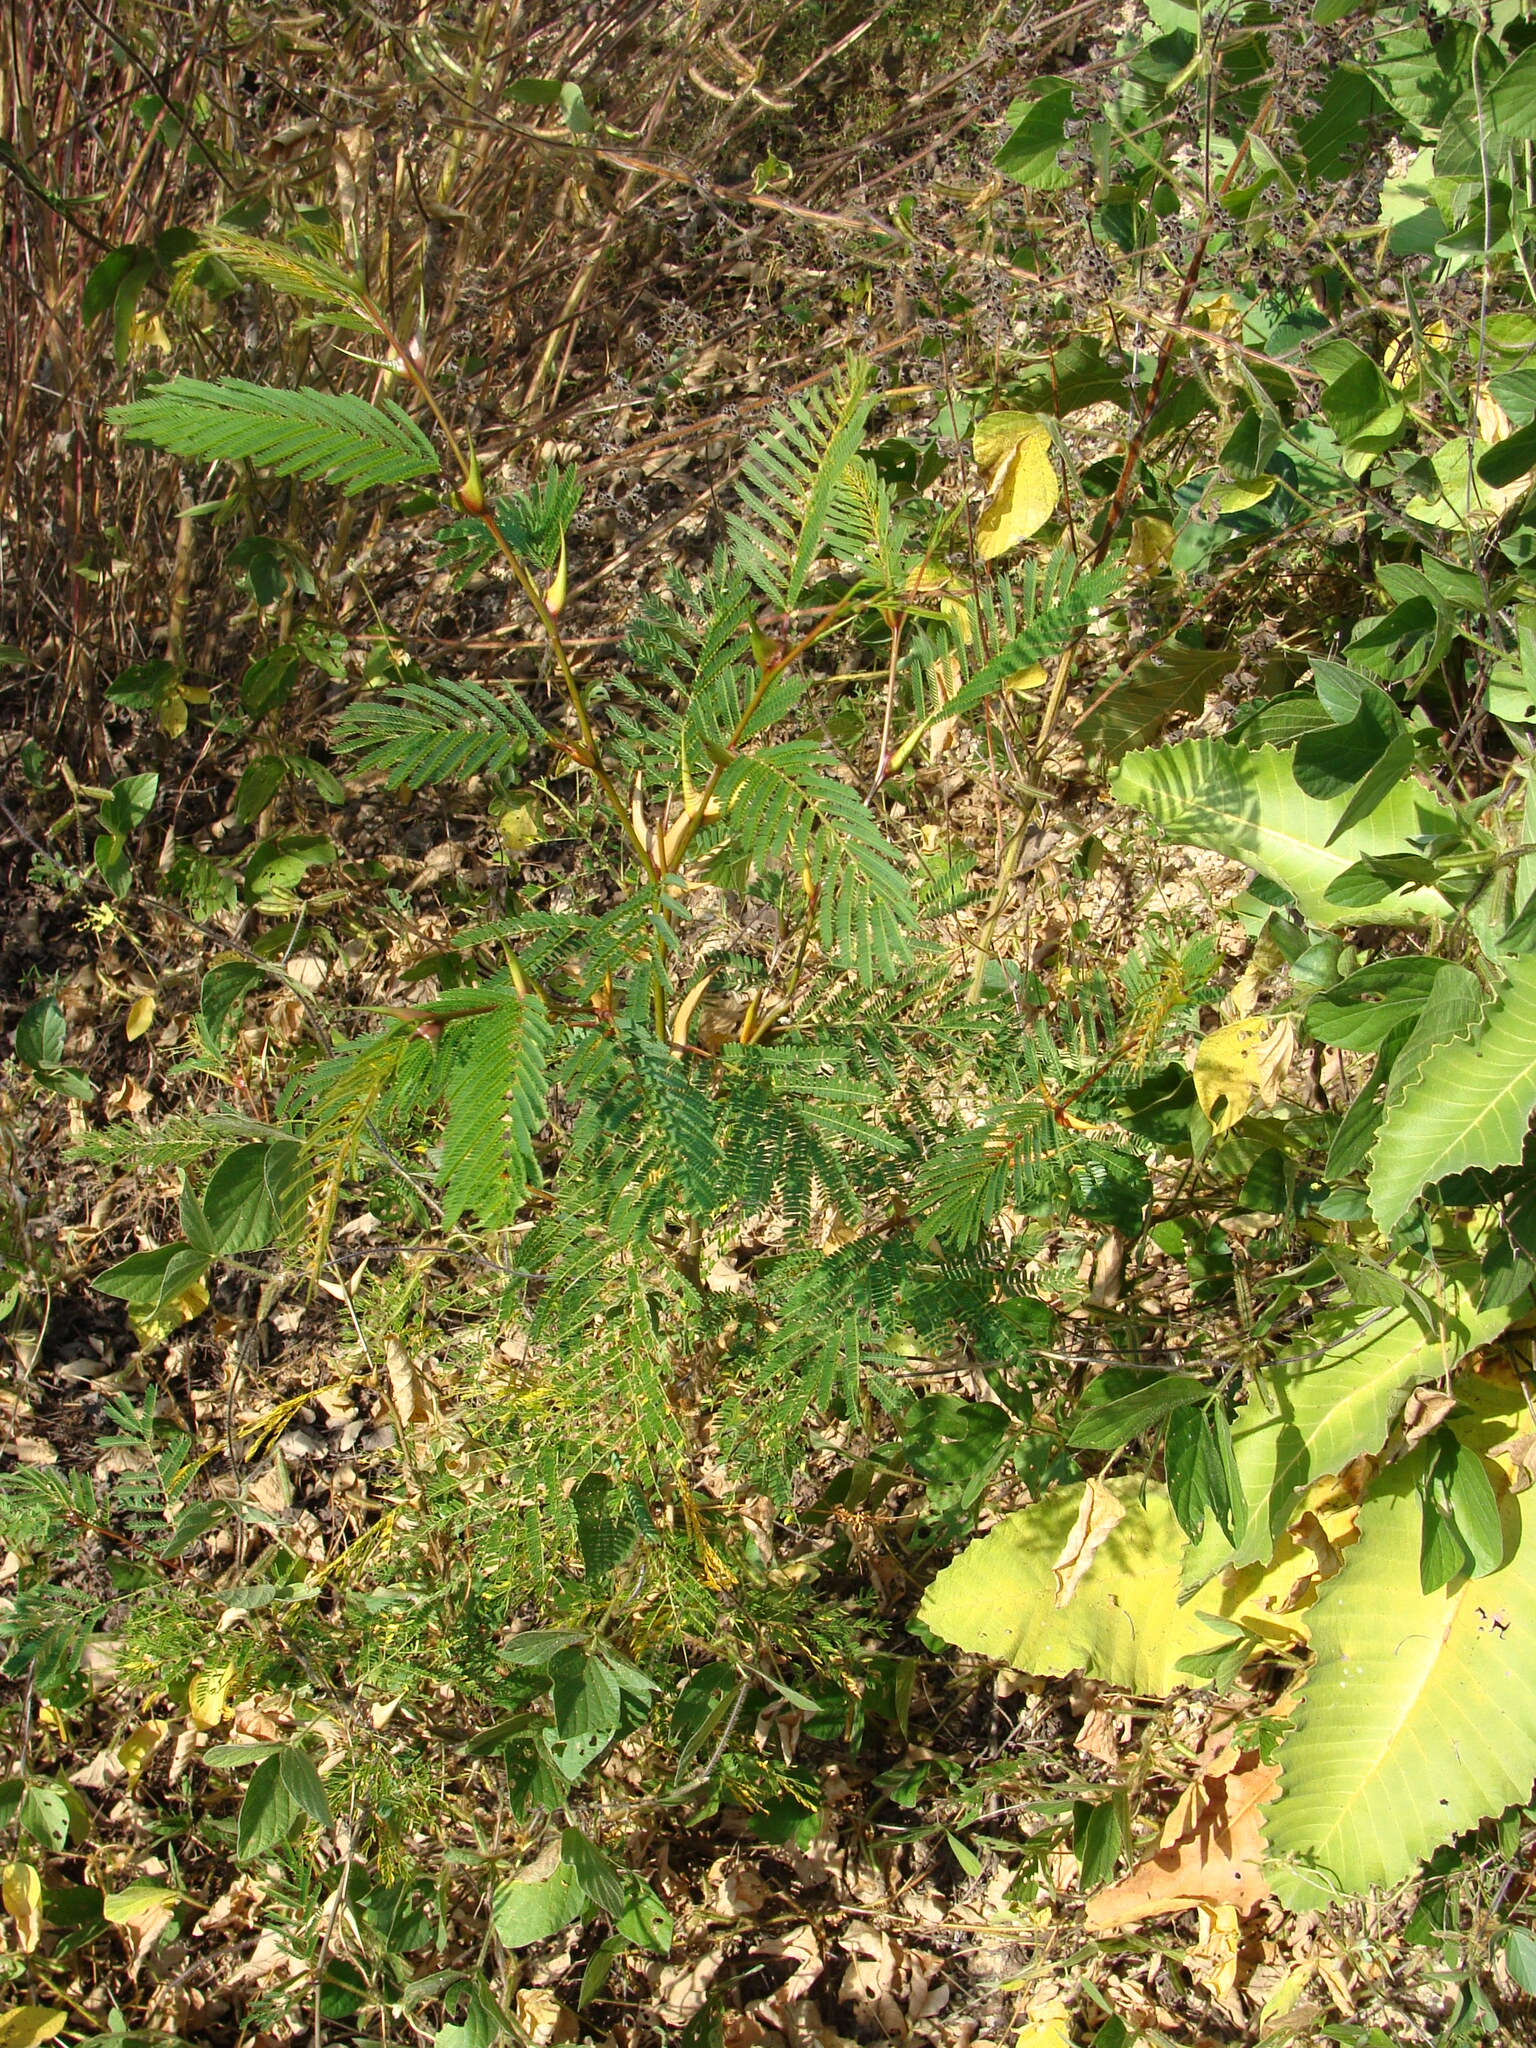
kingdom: Plantae
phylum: Tracheophyta
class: Magnoliopsida
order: Fabales
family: Fabaceae
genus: Vachellia
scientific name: Vachellia cornigera
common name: Bullhorn wattle
